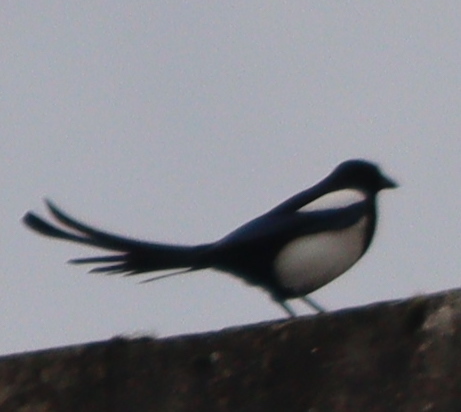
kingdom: Animalia
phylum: Chordata
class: Aves
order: Passeriformes
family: Corvidae
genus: Pica
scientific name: Pica pica
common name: Eurasian magpie
